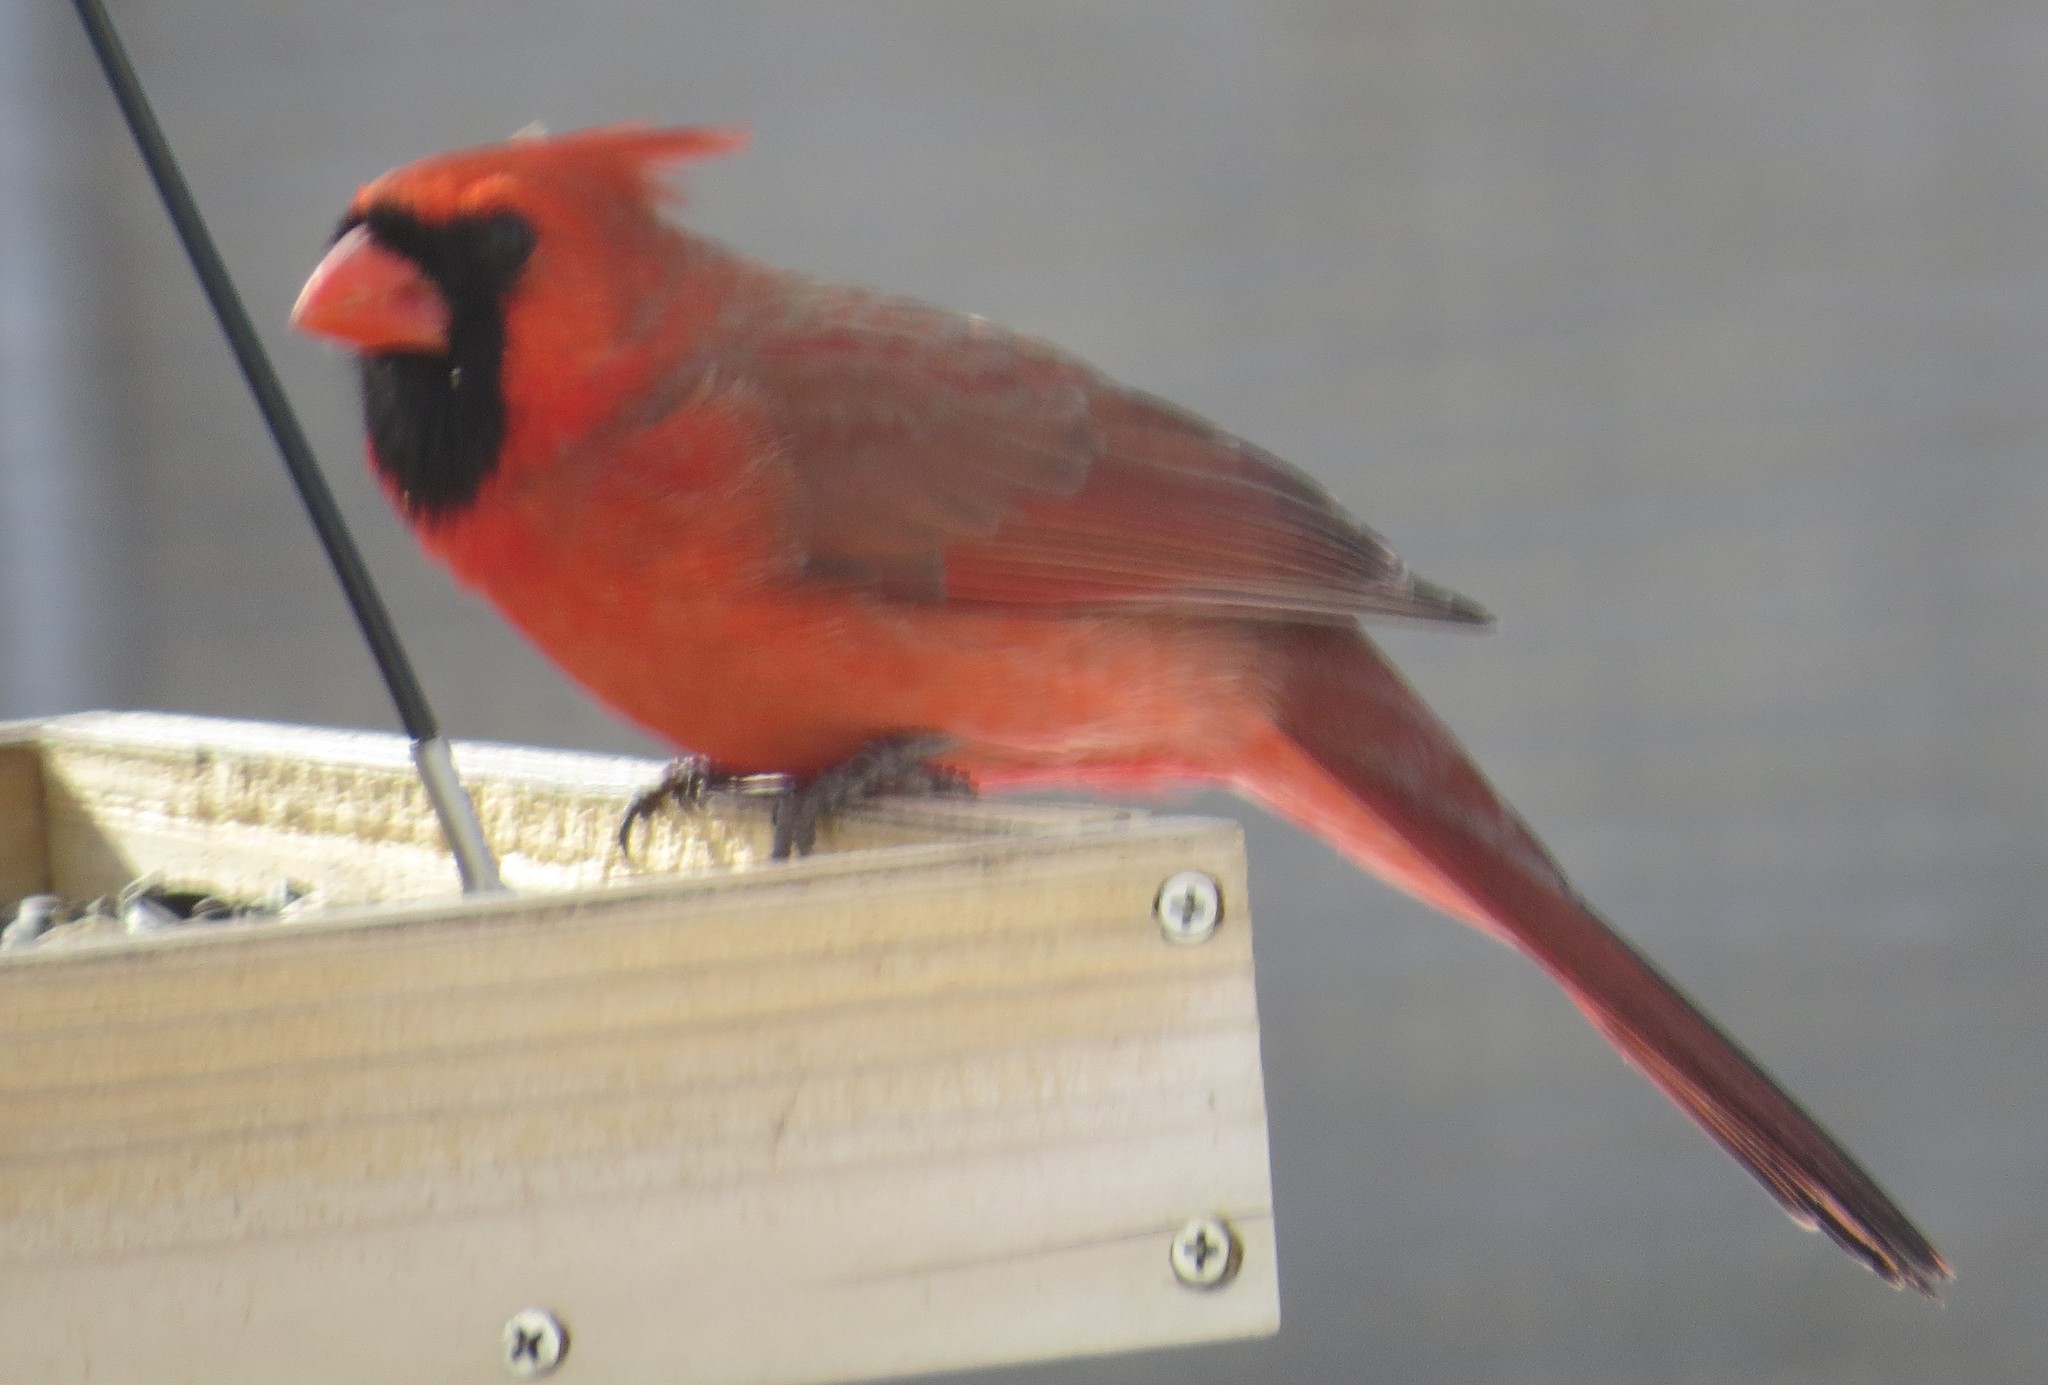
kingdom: Animalia
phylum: Chordata
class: Aves
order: Passeriformes
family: Cardinalidae
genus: Cardinalis
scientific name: Cardinalis cardinalis
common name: Northern cardinal
